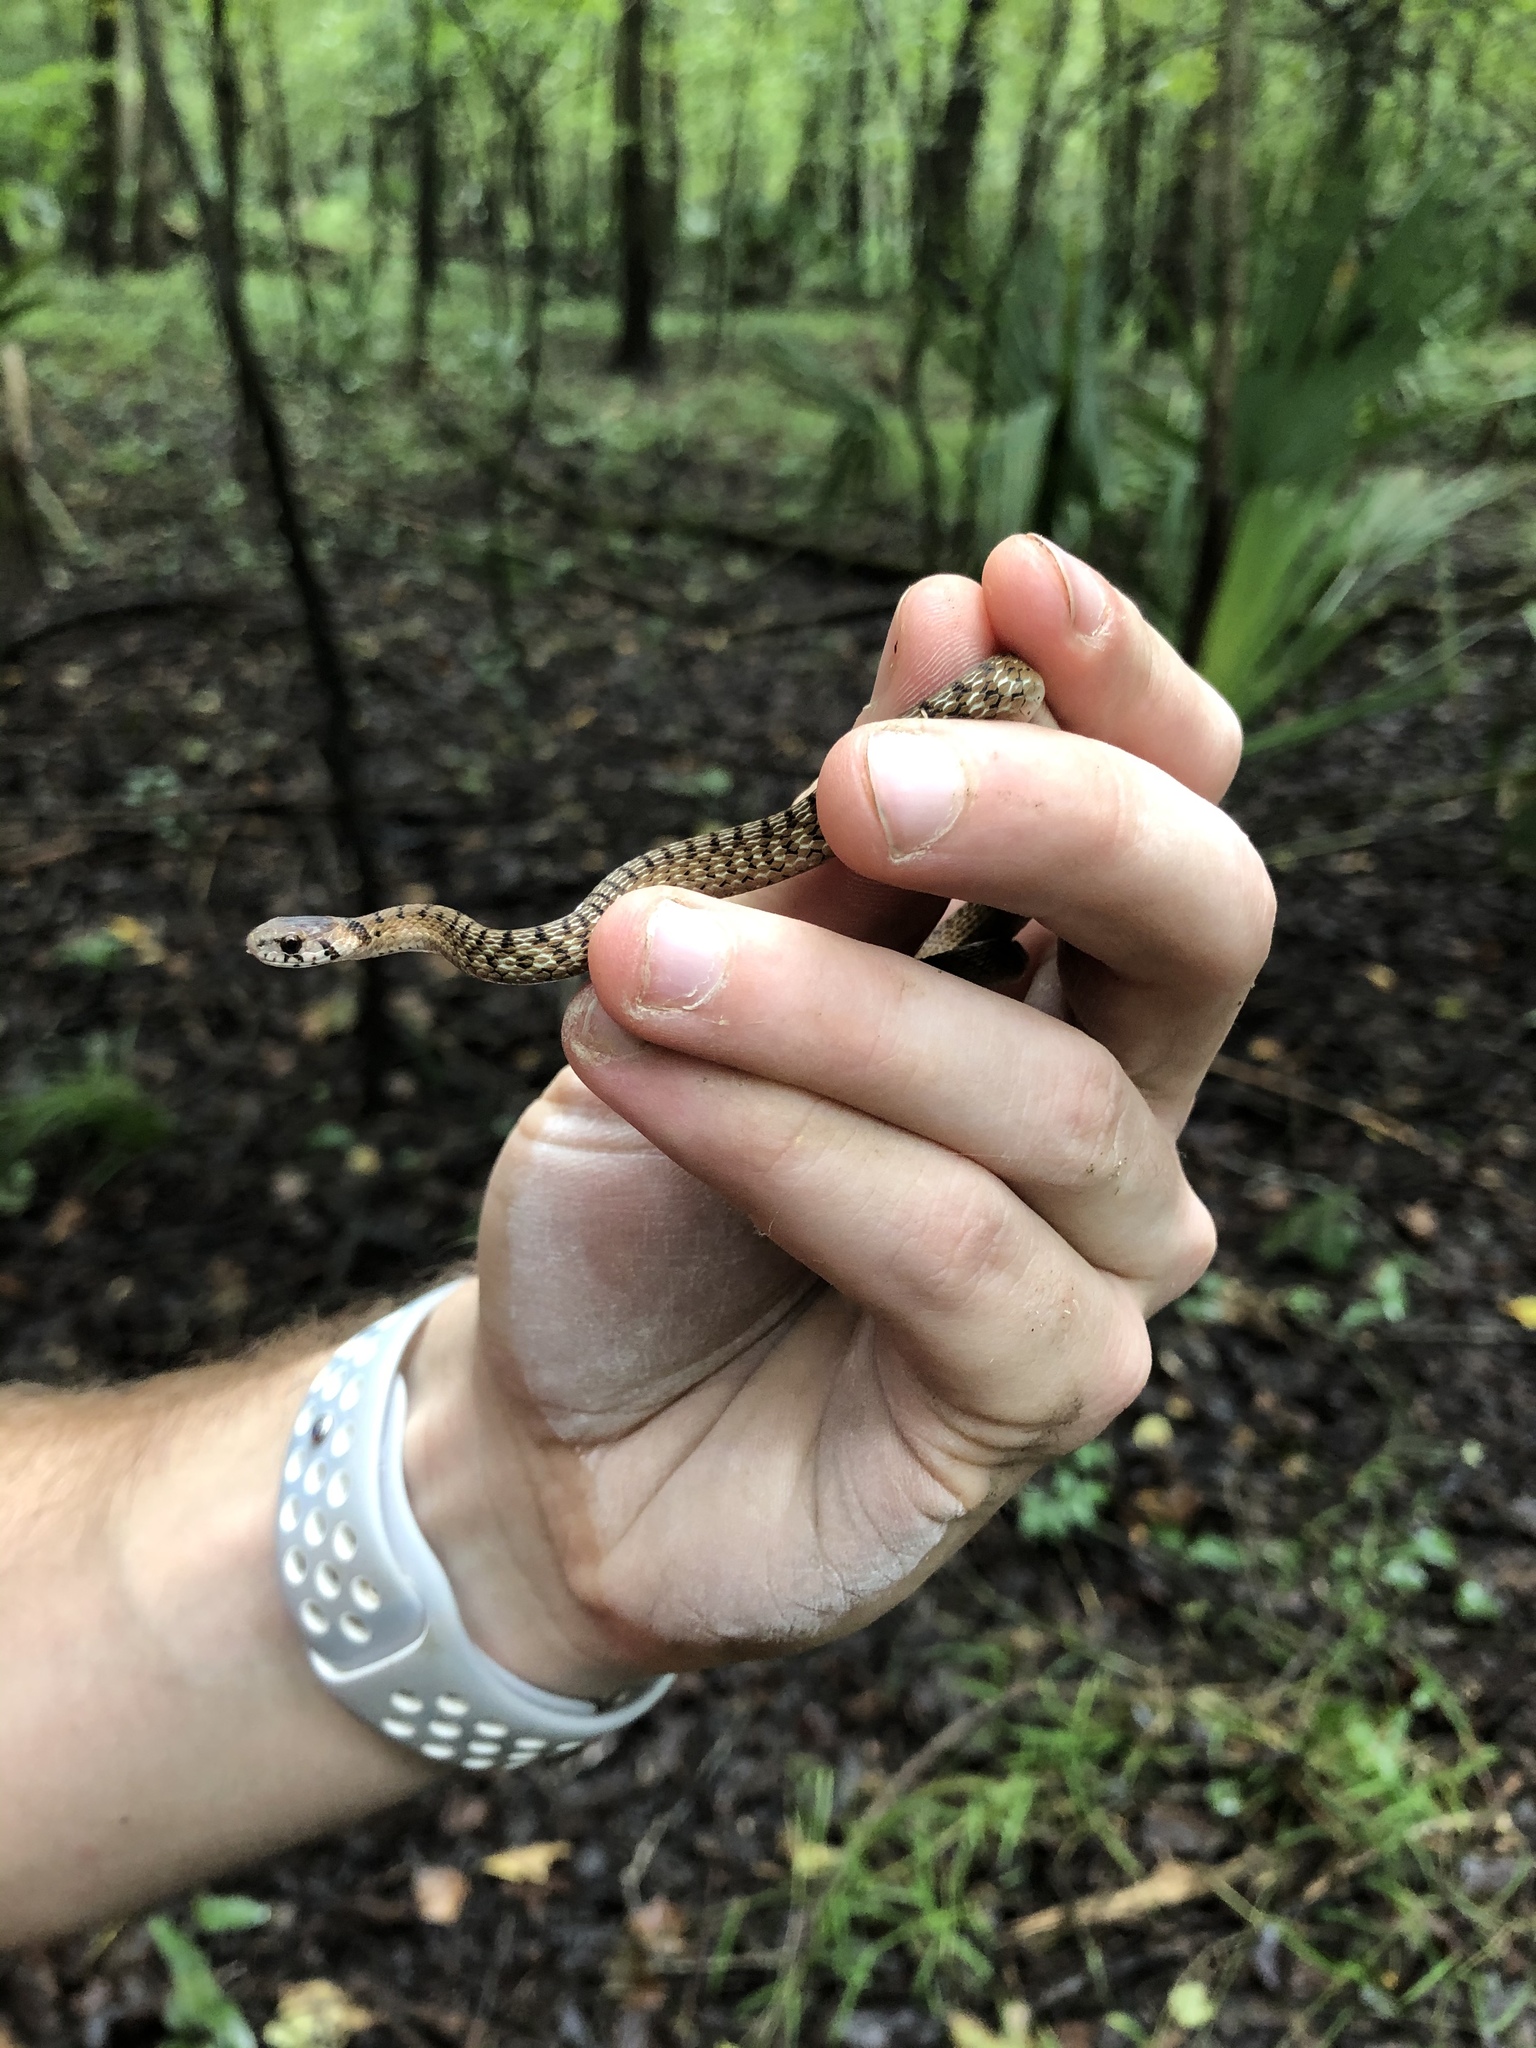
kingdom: Animalia
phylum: Chordata
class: Squamata
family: Colubridae
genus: Storeria
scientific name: Storeria dekayi
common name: (dekay’s) brown snake
